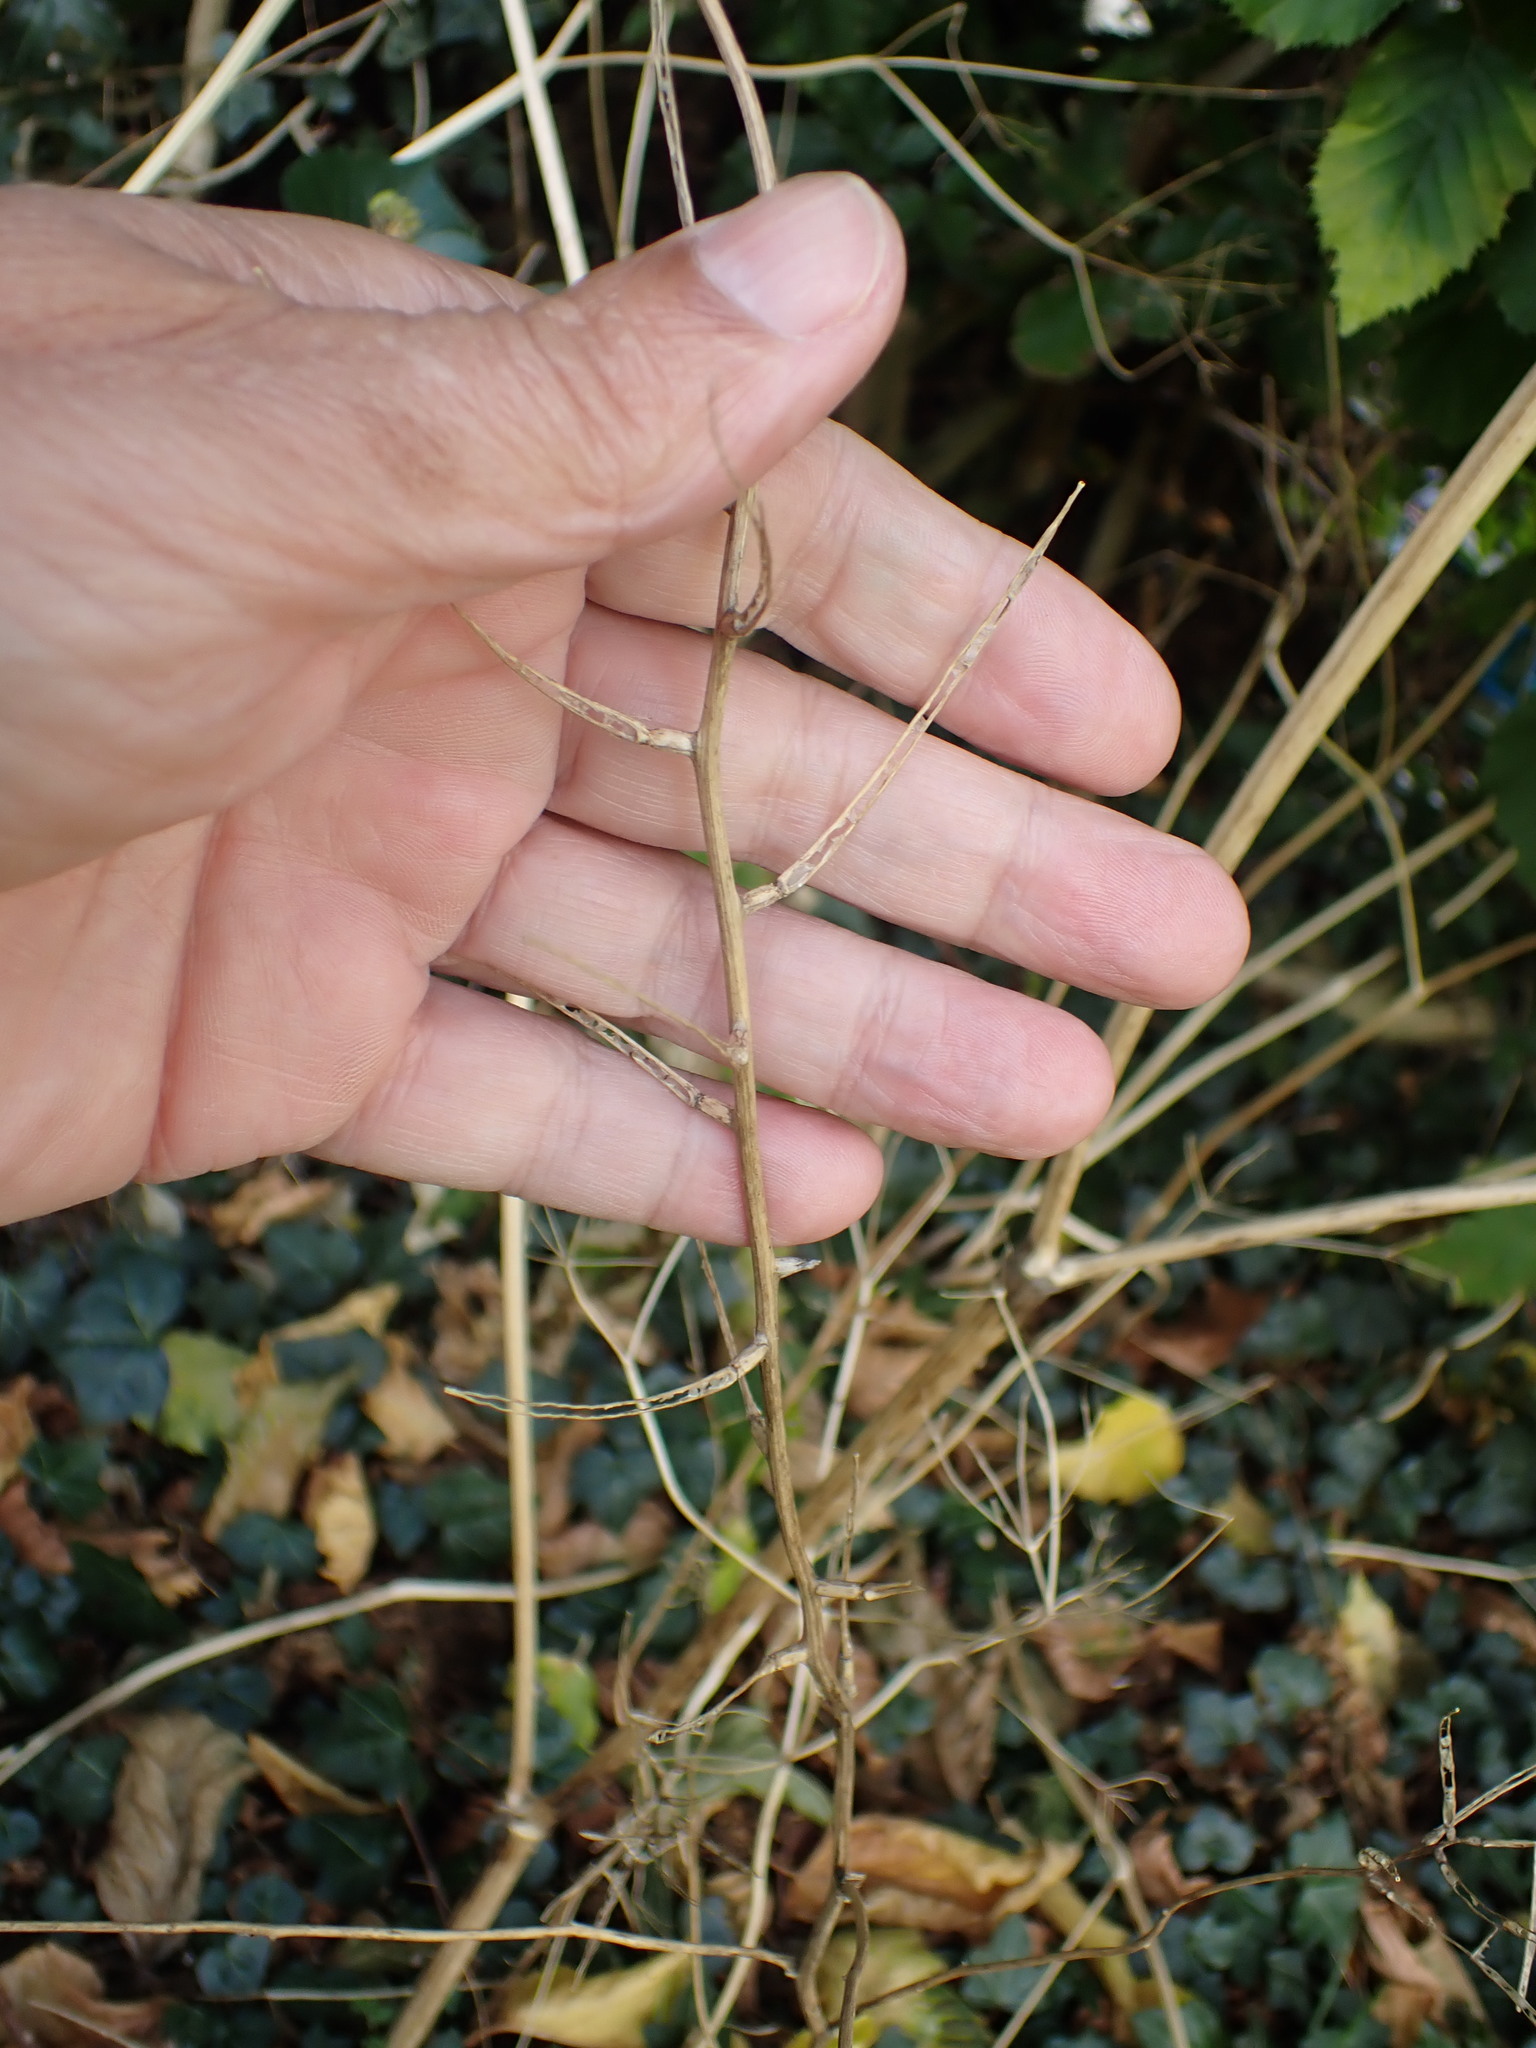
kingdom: Plantae
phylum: Tracheophyta
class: Magnoliopsida
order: Brassicales
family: Brassicaceae
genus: Alliaria
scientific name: Alliaria petiolata
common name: Garlic mustard
